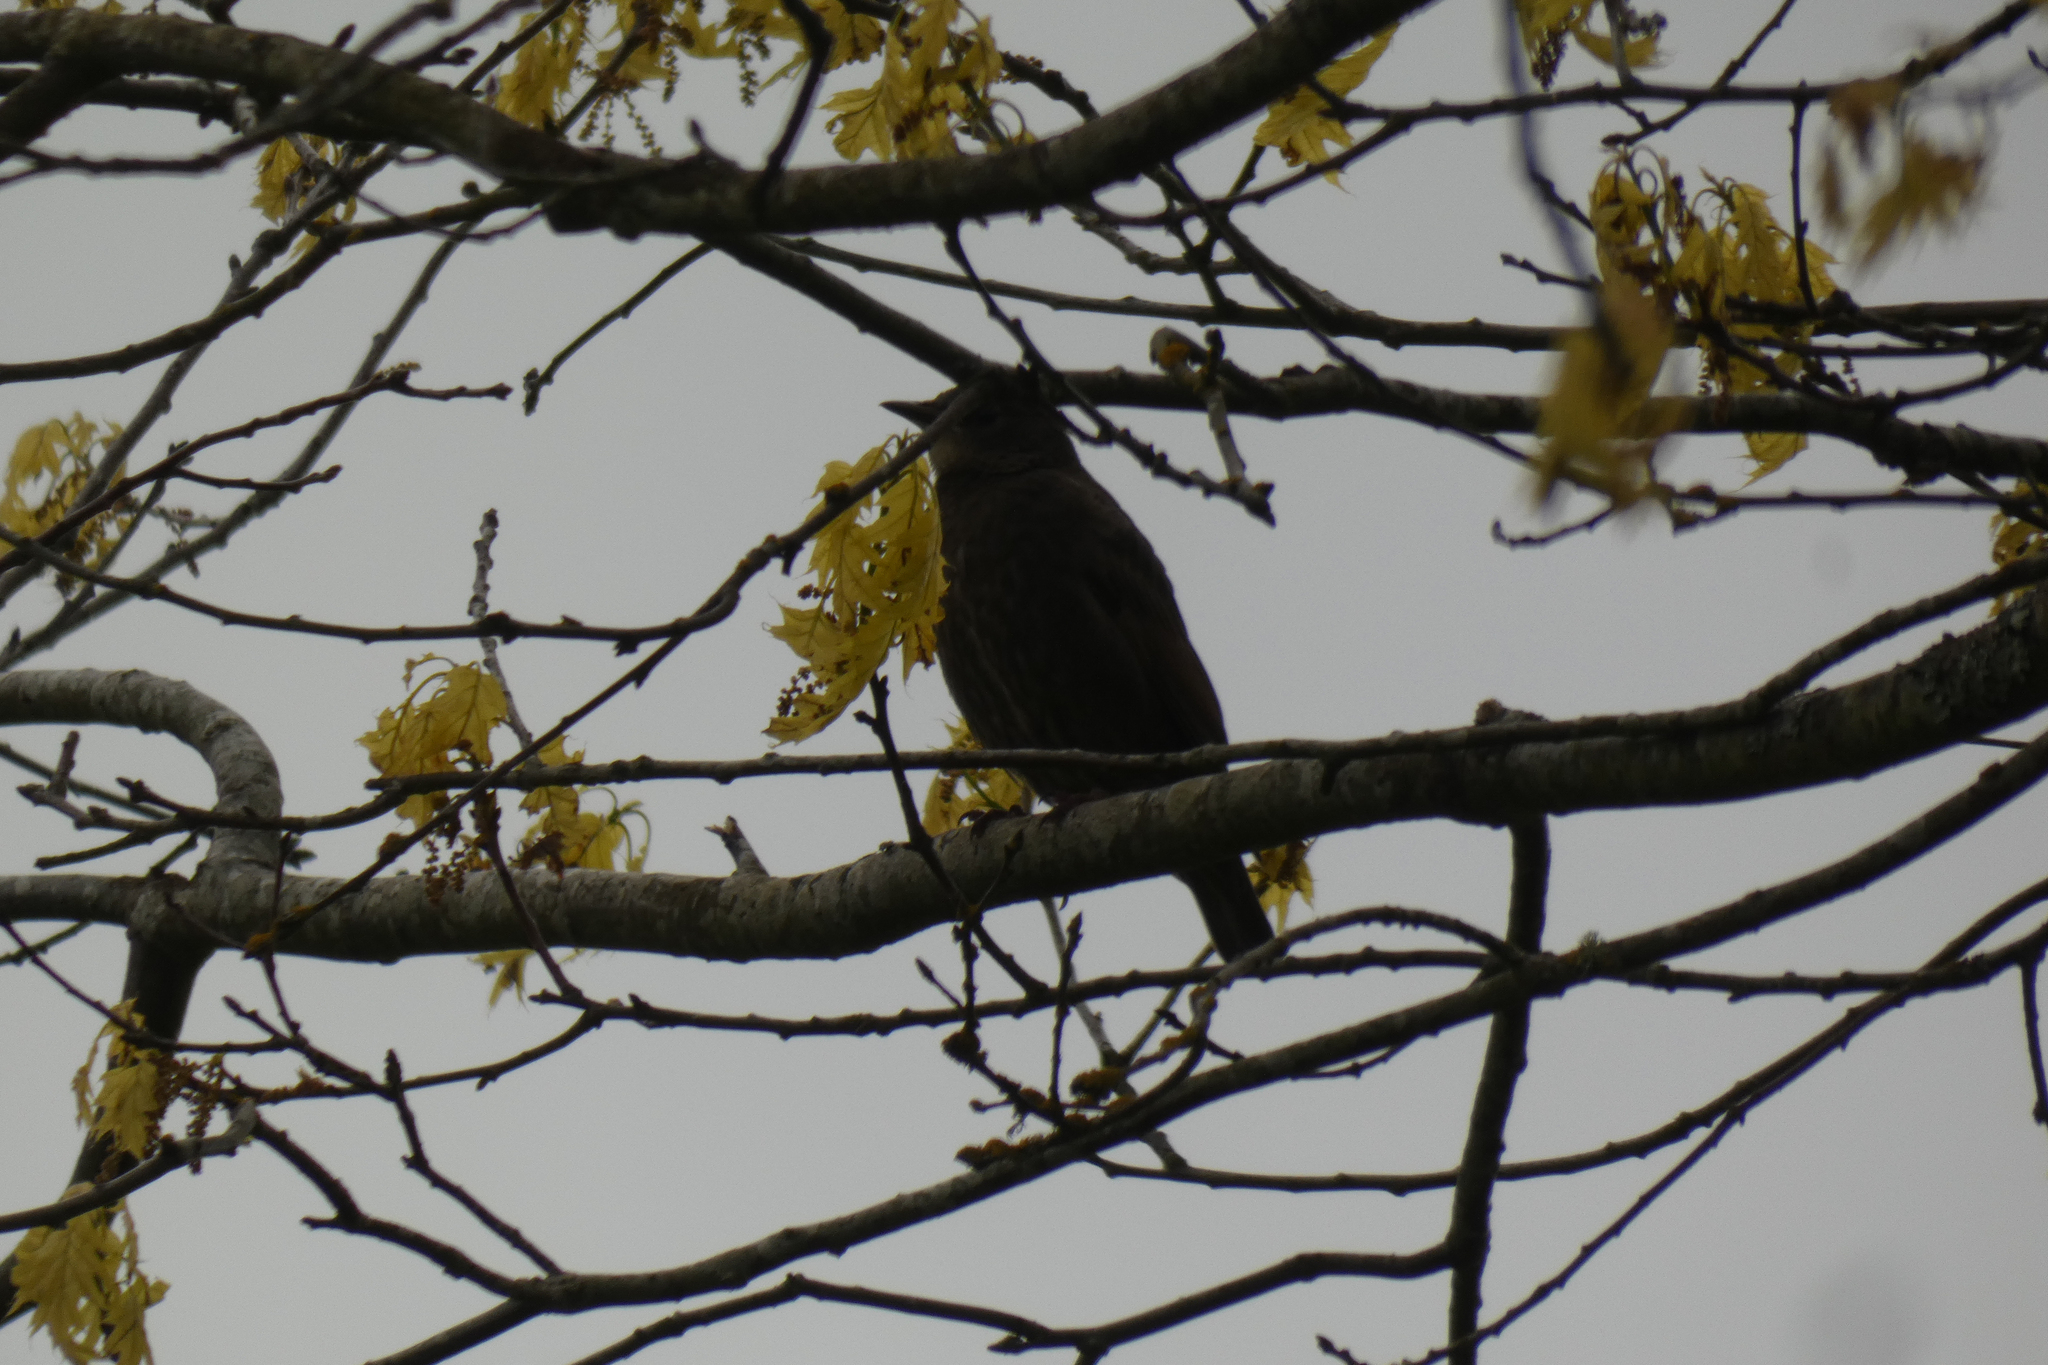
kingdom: Animalia
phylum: Chordata
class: Aves
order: Passeriformes
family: Sturnidae
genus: Sturnus
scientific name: Sturnus vulgaris
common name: Common starling
